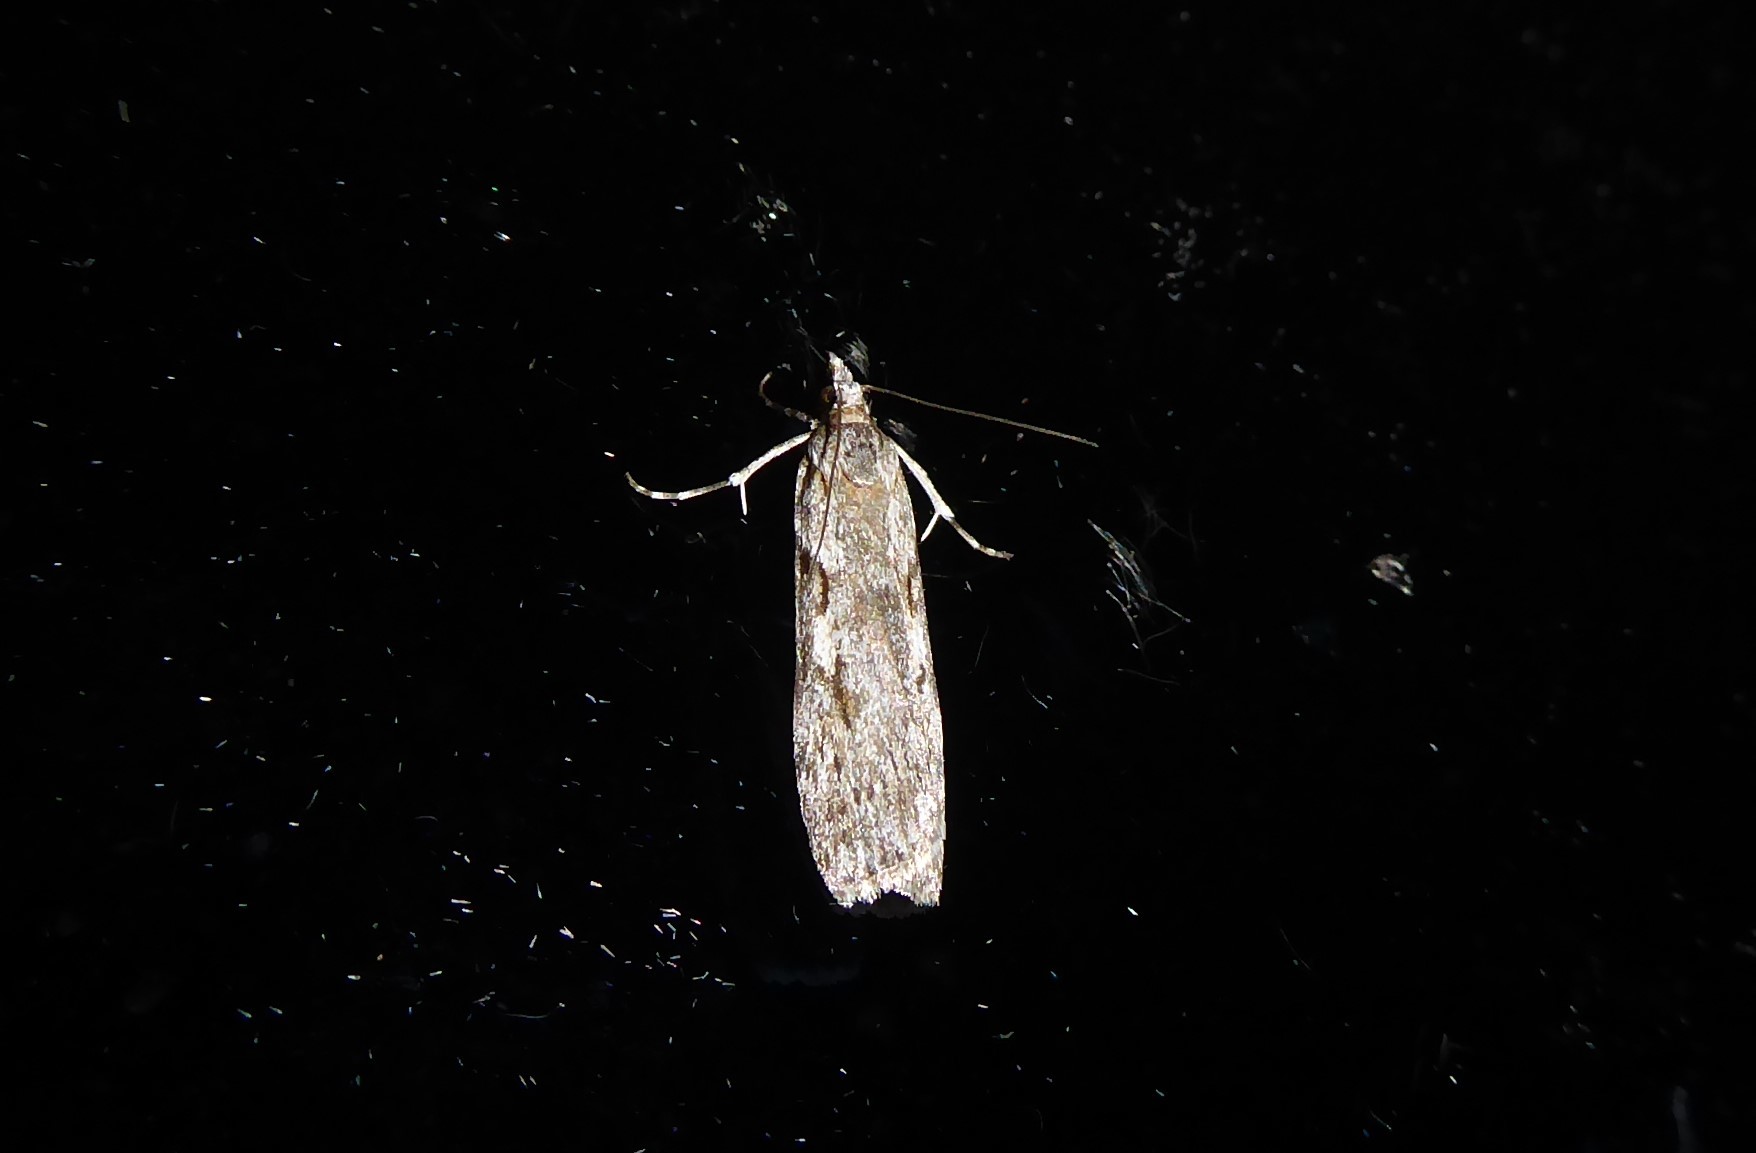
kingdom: Animalia
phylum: Arthropoda
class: Insecta
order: Lepidoptera
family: Crambidae
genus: Scoparia
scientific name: Scoparia halopis
